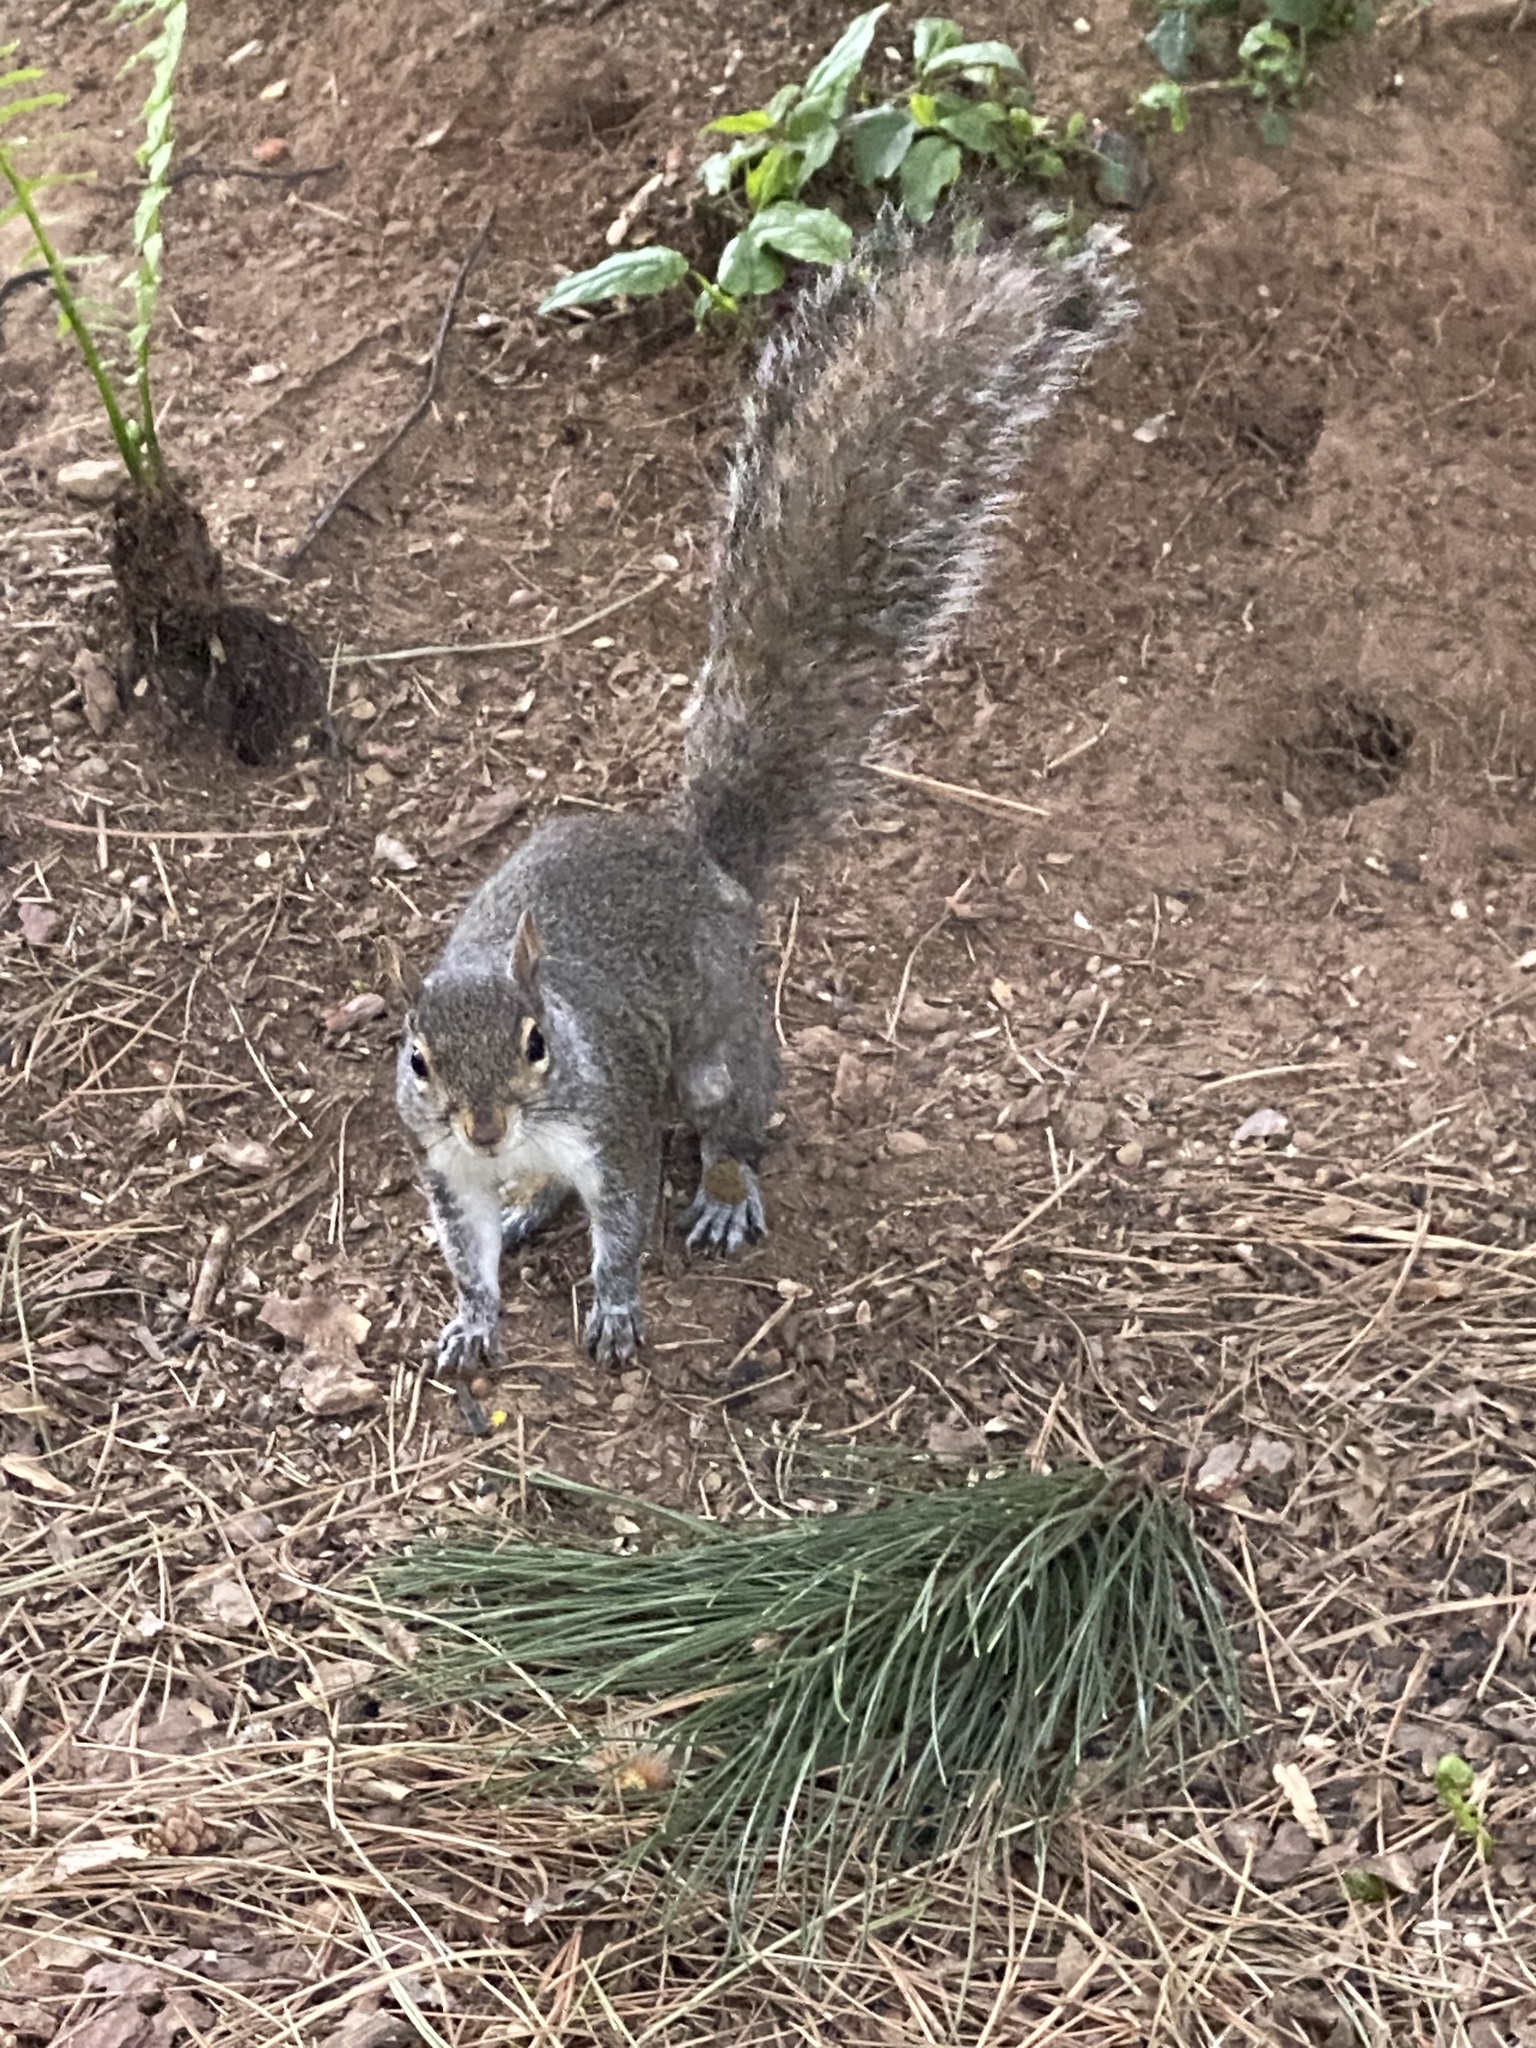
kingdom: Animalia
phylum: Chordata
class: Mammalia
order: Rodentia
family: Sciuridae
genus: Sciurus
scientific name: Sciurus carolinensis
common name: Eastern gray squirrel
